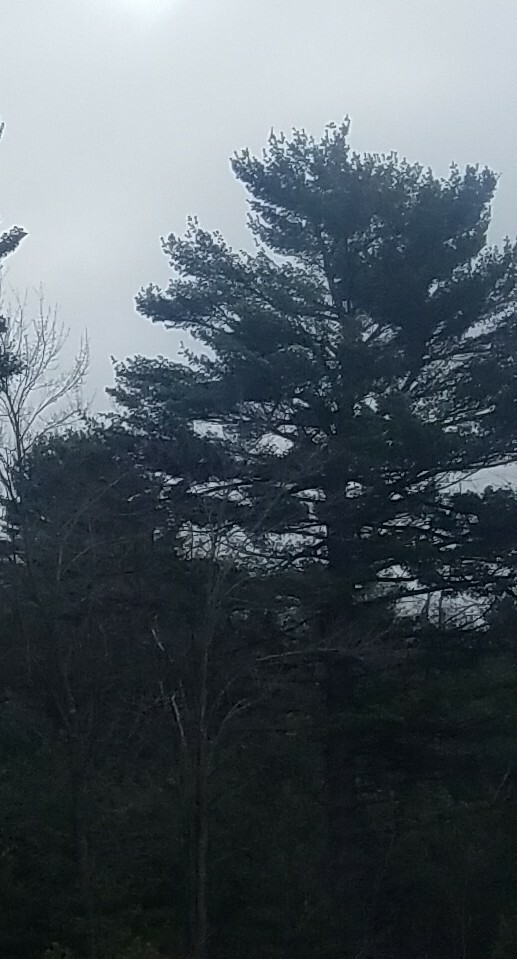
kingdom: Plantae
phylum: Tracheophyta
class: Pinopsida
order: Pinales
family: Pinaceae
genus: Pinus
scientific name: Pinus strobus
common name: Weymouth pine
